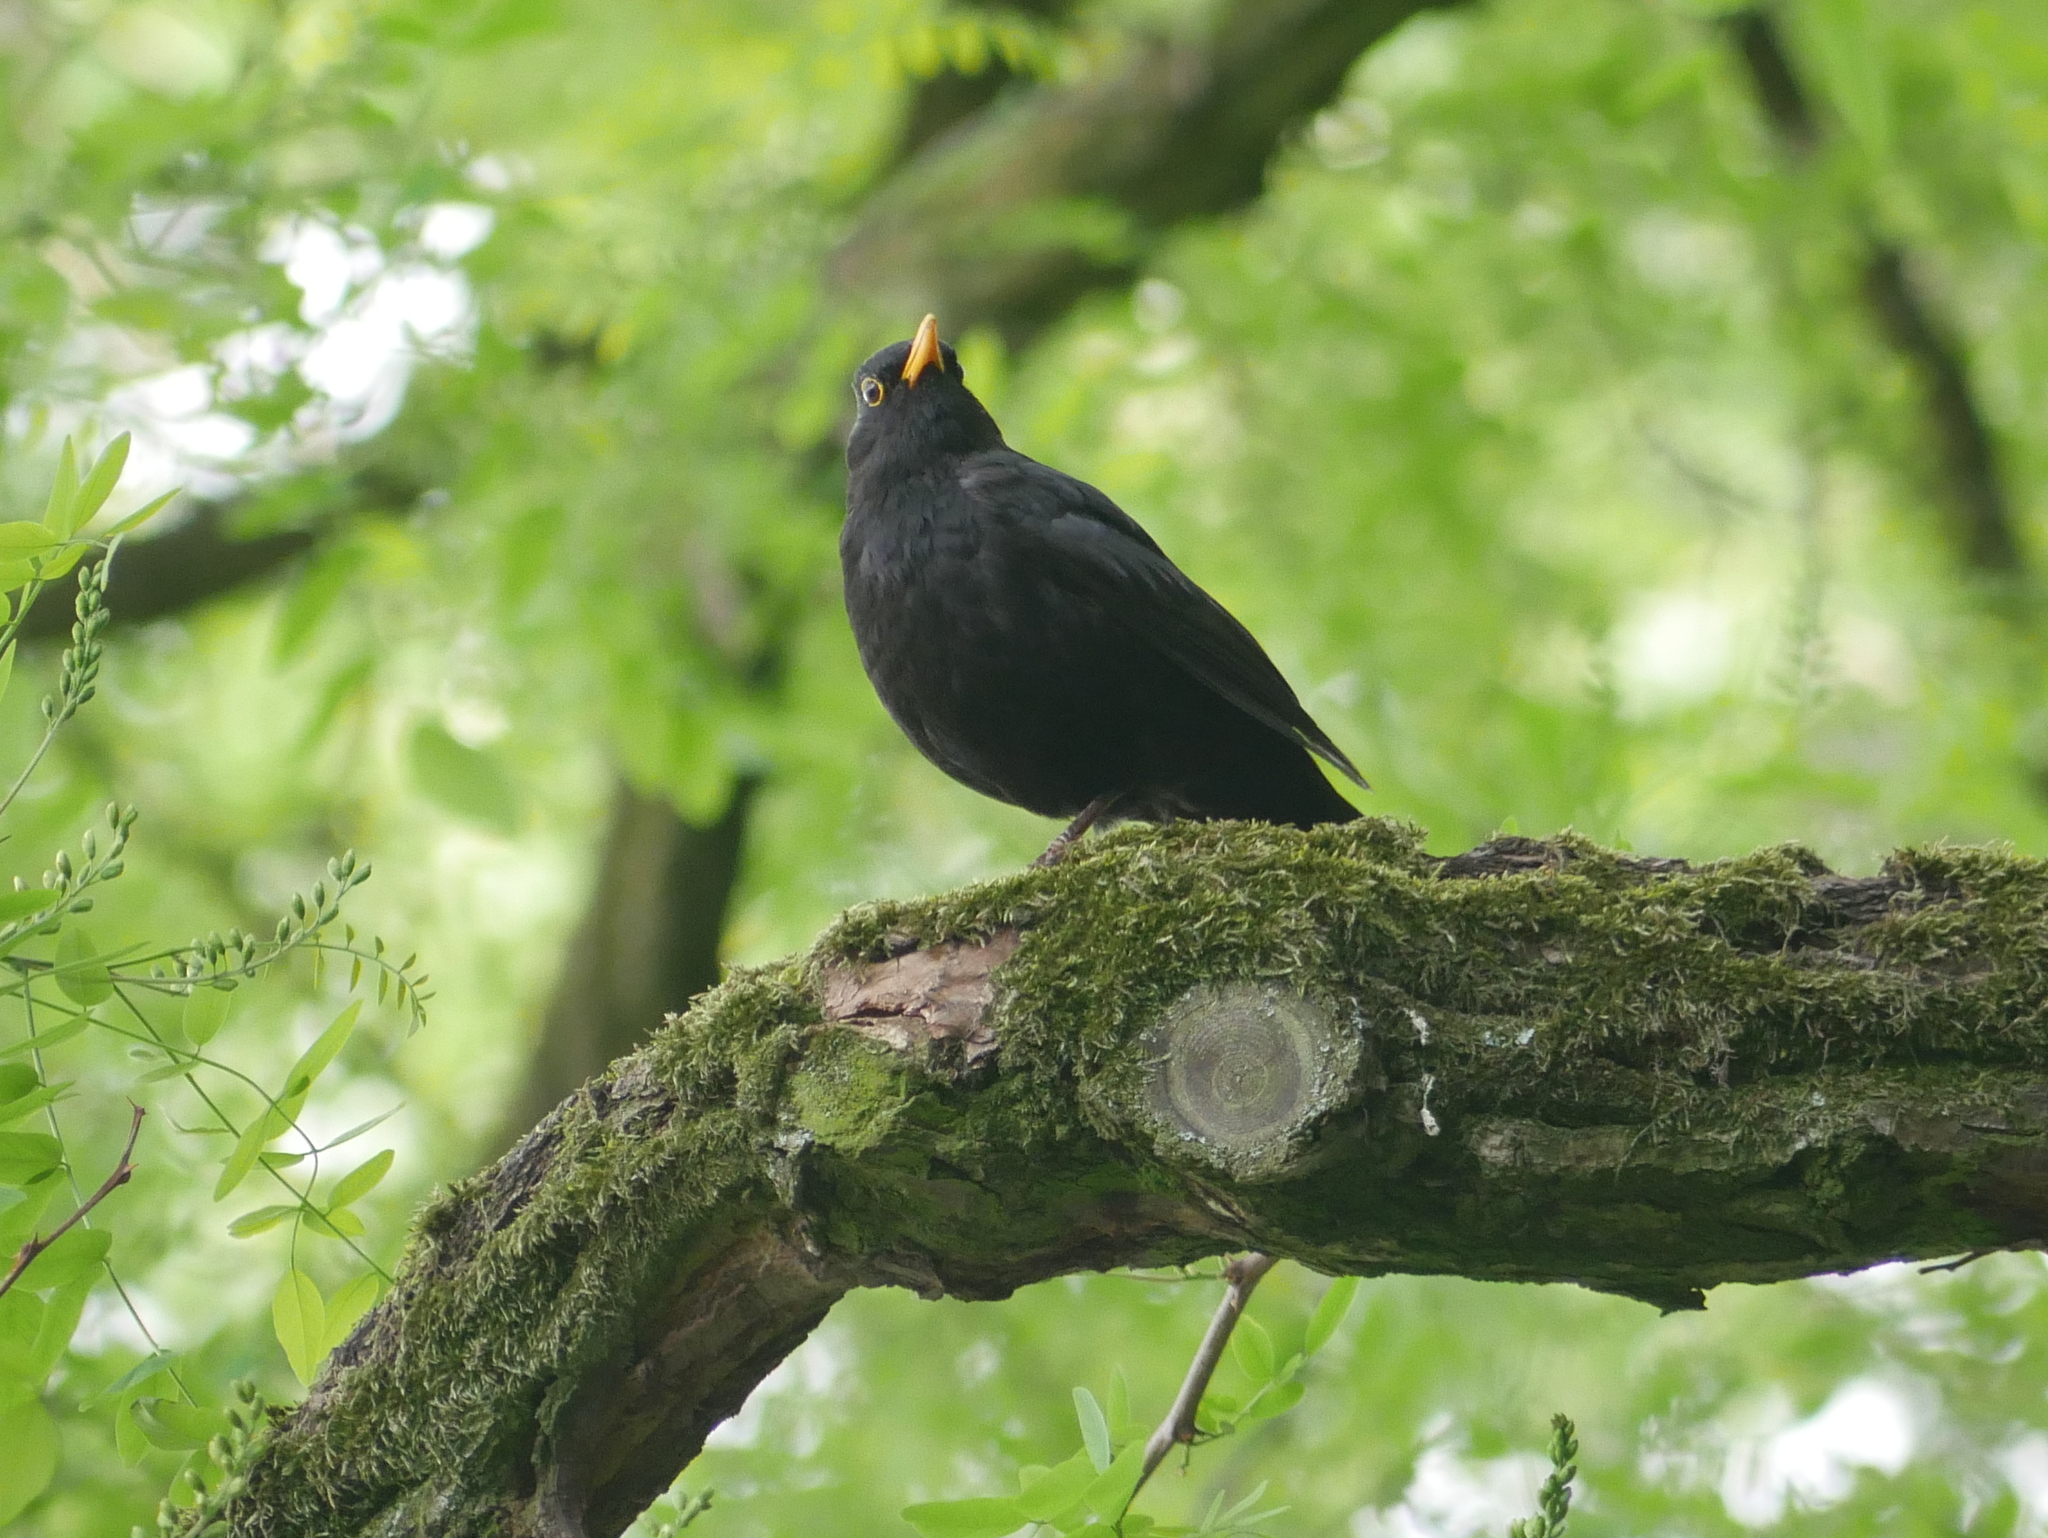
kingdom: Animalia
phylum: Chordata
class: Aves
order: Passeriformes
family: Turdidae
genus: Turdus
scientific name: Turdus merula
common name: Common blackbird
